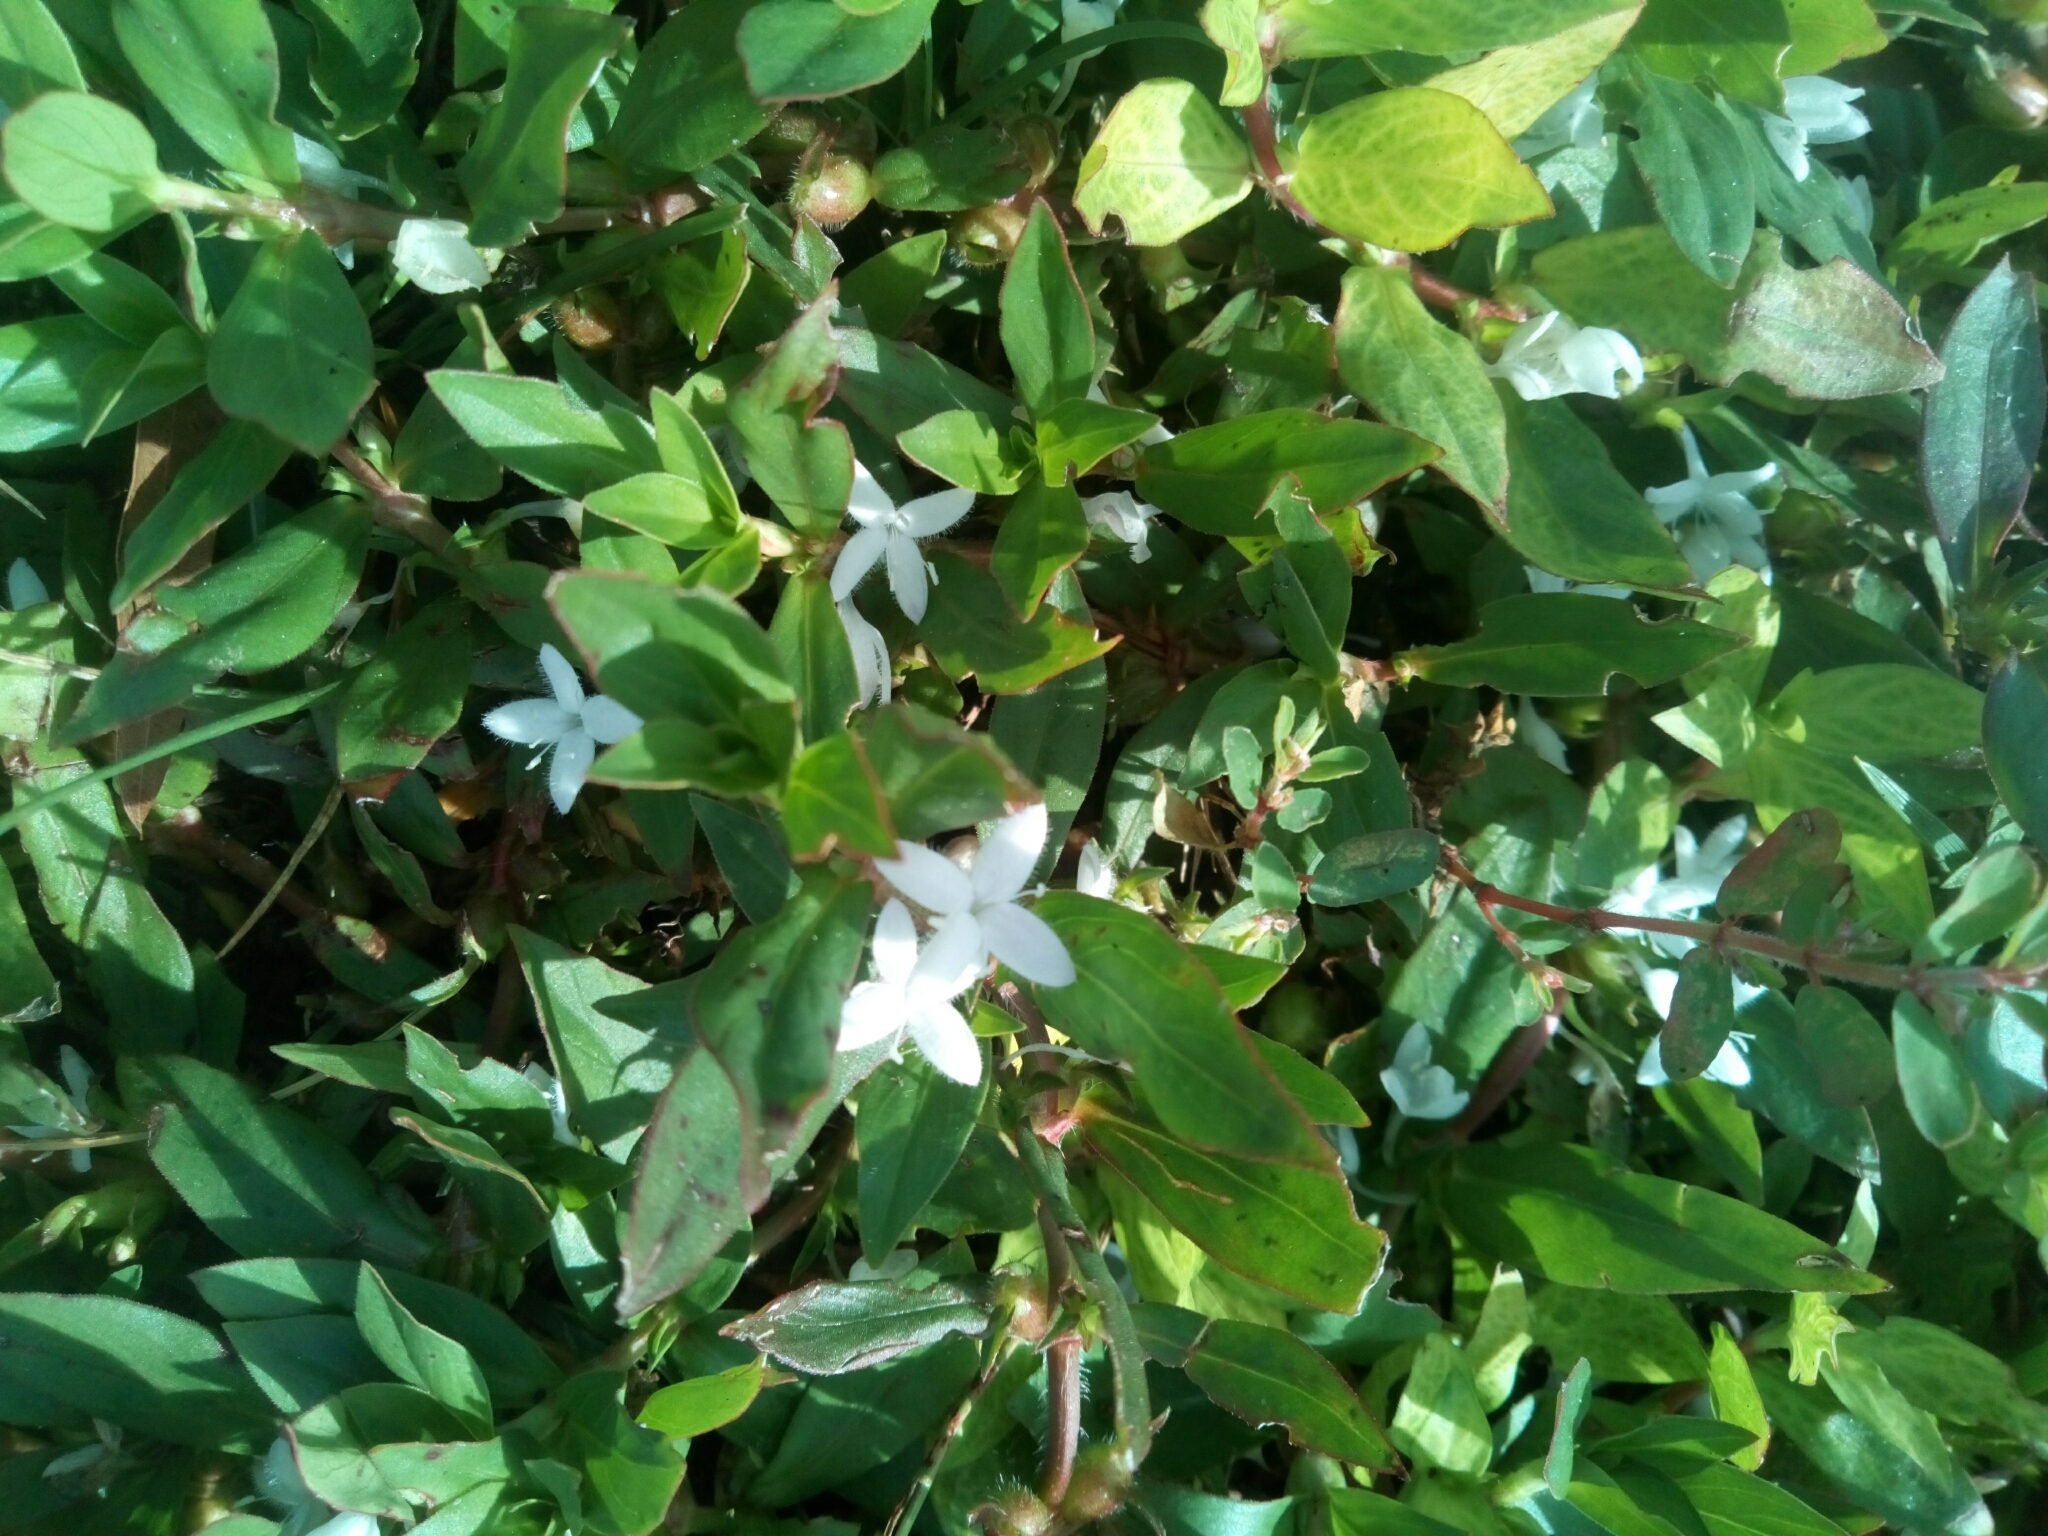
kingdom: Plantae
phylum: Tracheophyta
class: Magnoliopsida
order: Gentianales
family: Rubiaceae
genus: Diodia
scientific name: Diodia virginiana
